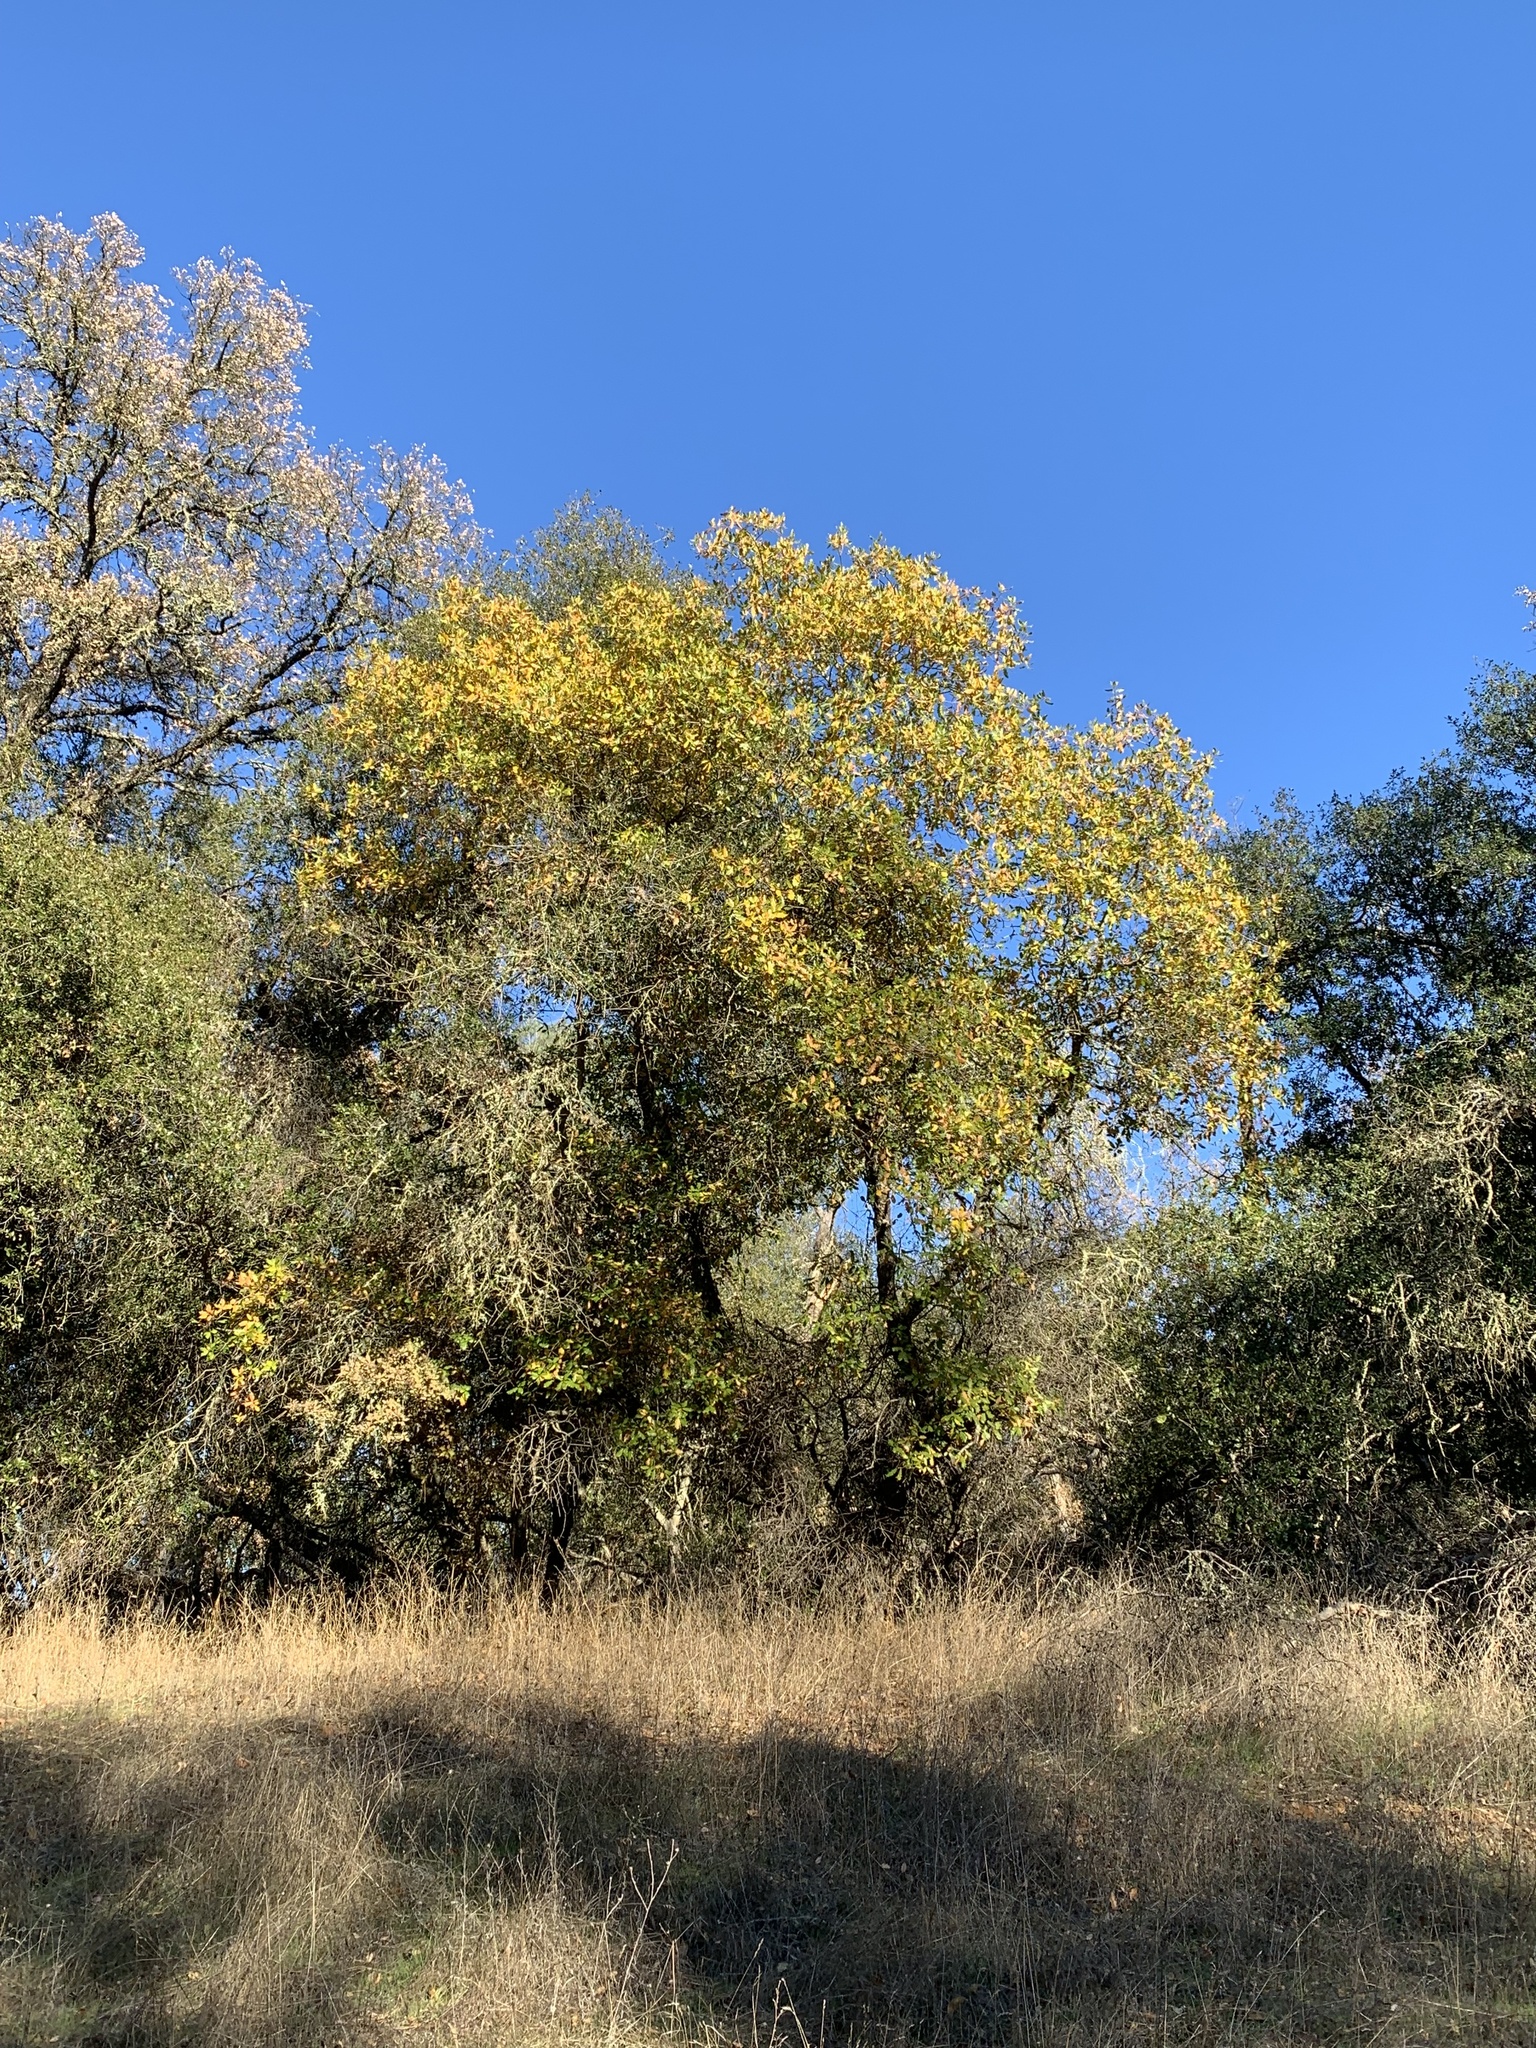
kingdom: Plantae
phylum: Tracheophyta
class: Magnoliopsida
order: Fagales
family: Fagaceae
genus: Quercus
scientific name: Quercus morehus
